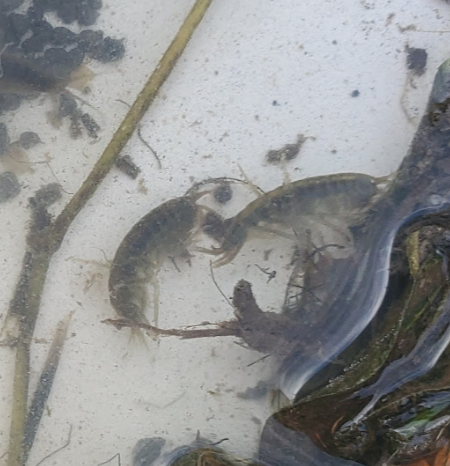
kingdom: Animalia
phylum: Arthropoda
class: Malacostraca
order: Amphipoda
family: Gammaridae
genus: Gammarus
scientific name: Gammarus lacustris
